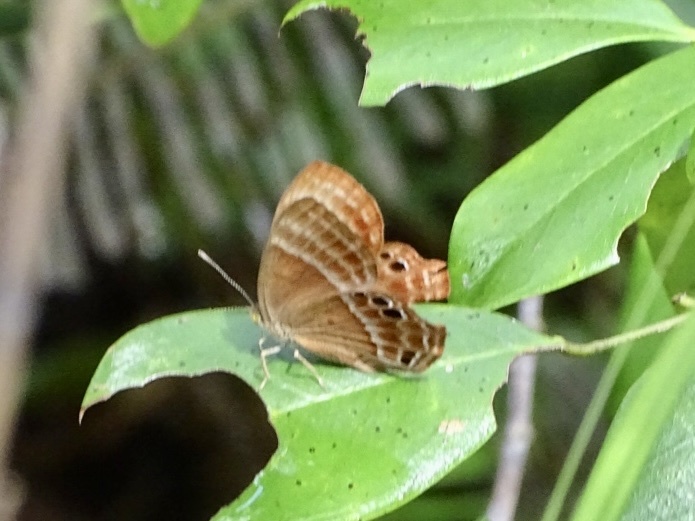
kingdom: Animalia
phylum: Arthropoda
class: Insecta
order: Lepidoptera
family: Lycaenidae
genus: Abisara
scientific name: Abisara echeria
